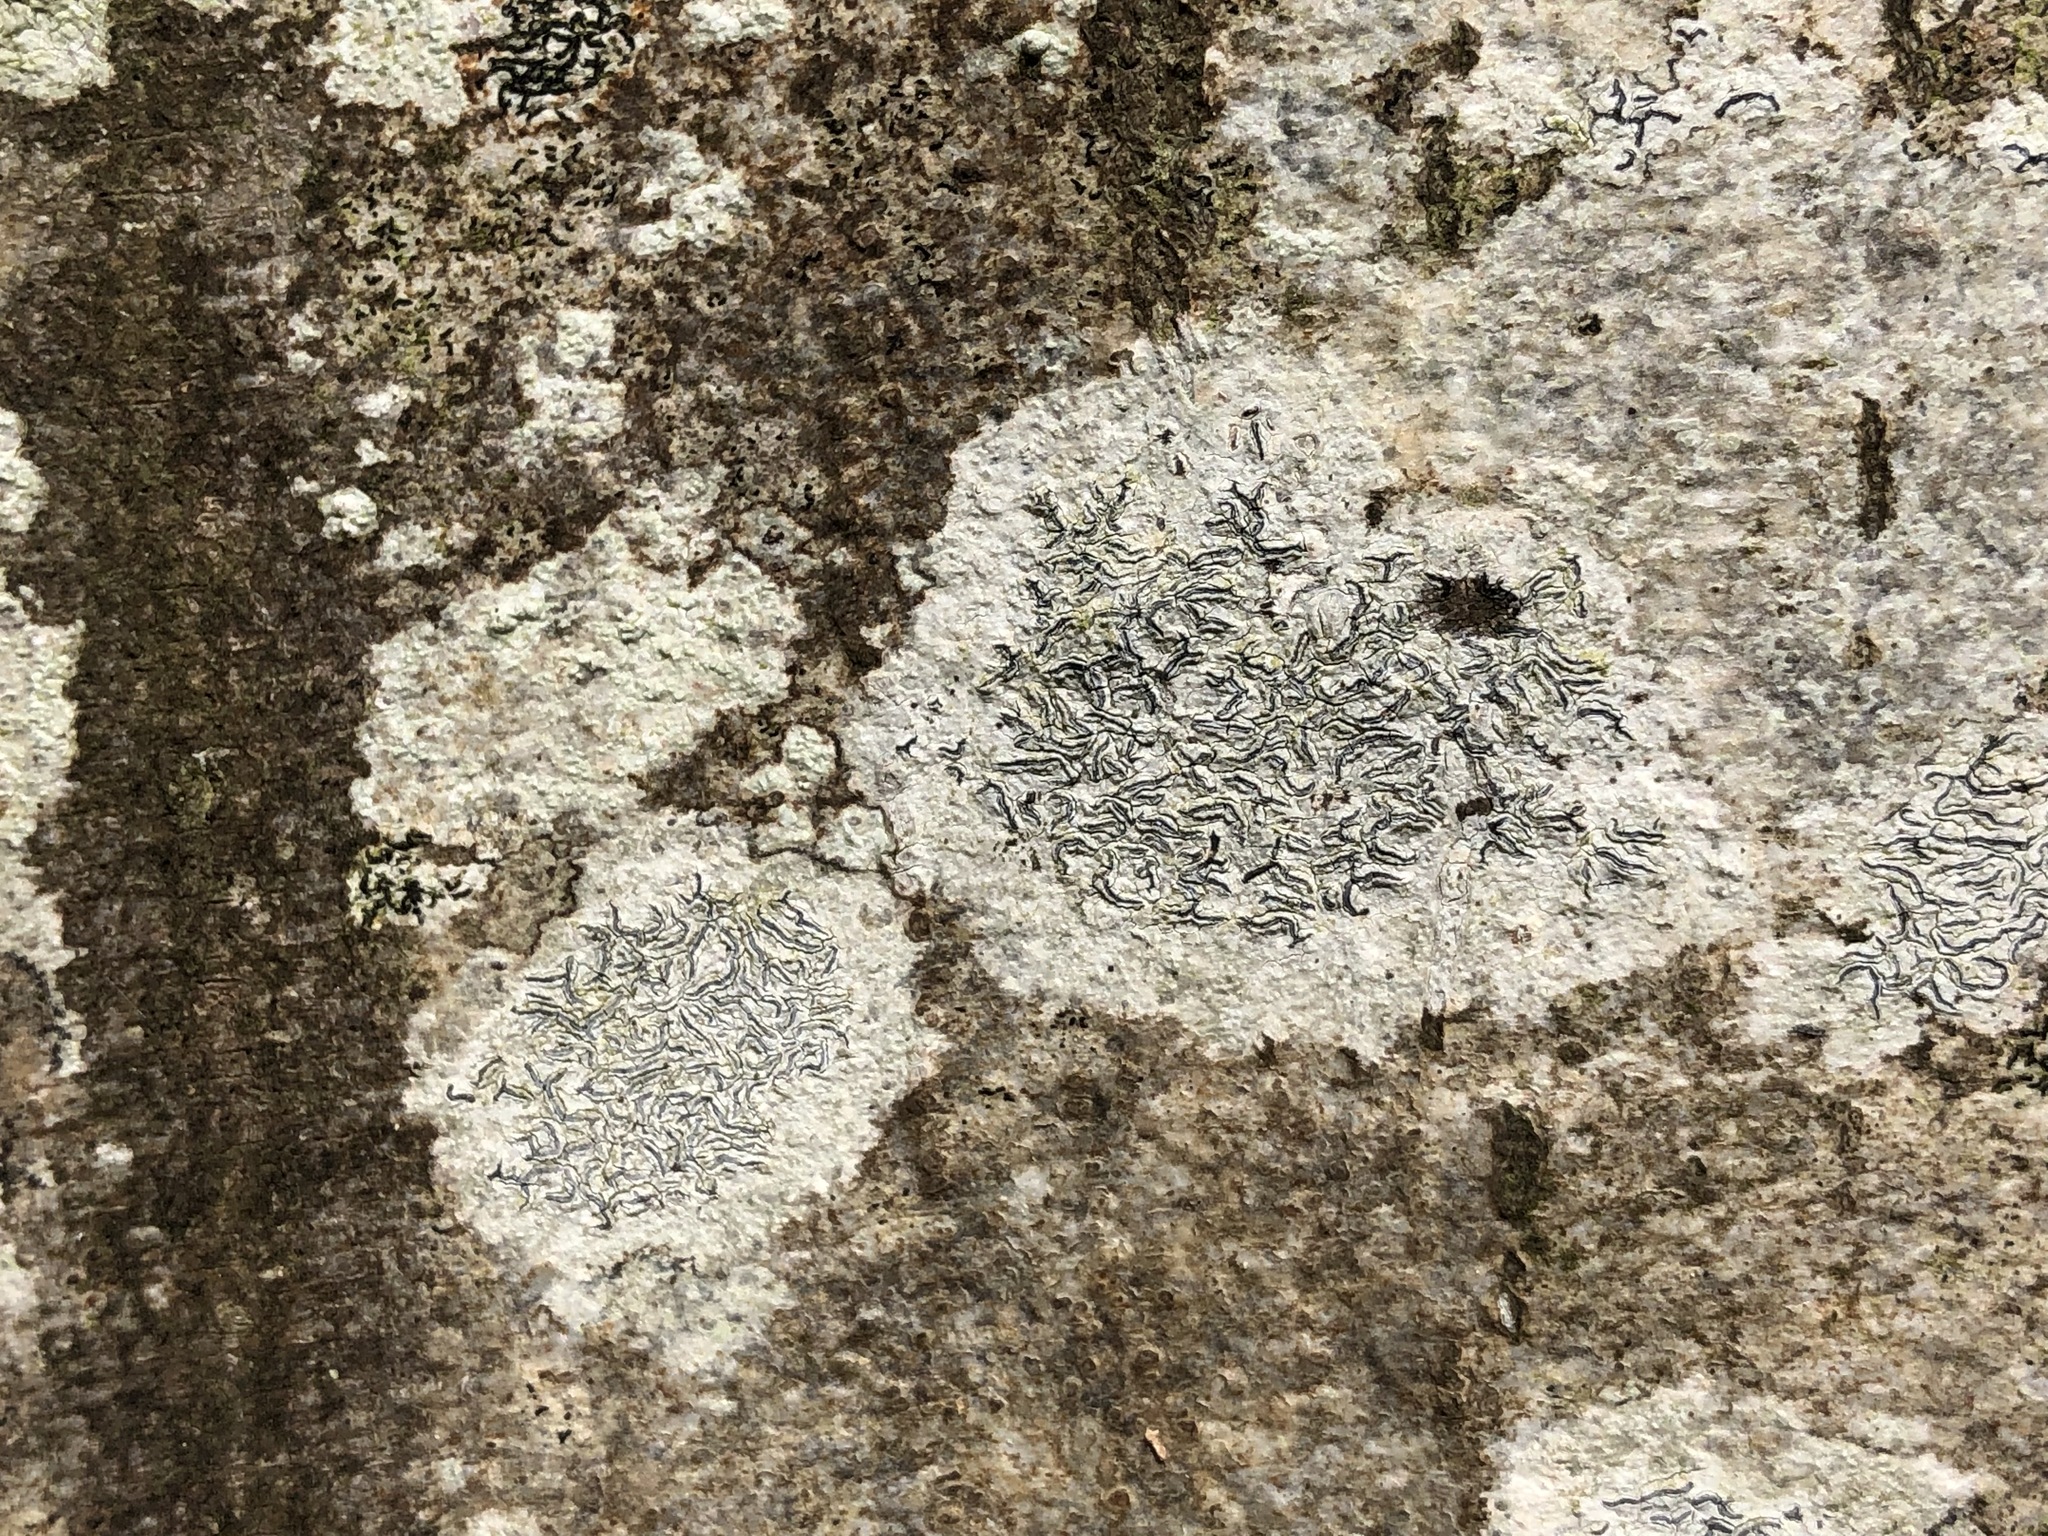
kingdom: Fungi
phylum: Ascomycota
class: Lecanoromycetes
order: Ostropales
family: Graphidaceae
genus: Graphis
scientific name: Graphis scripta
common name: Script lichen
